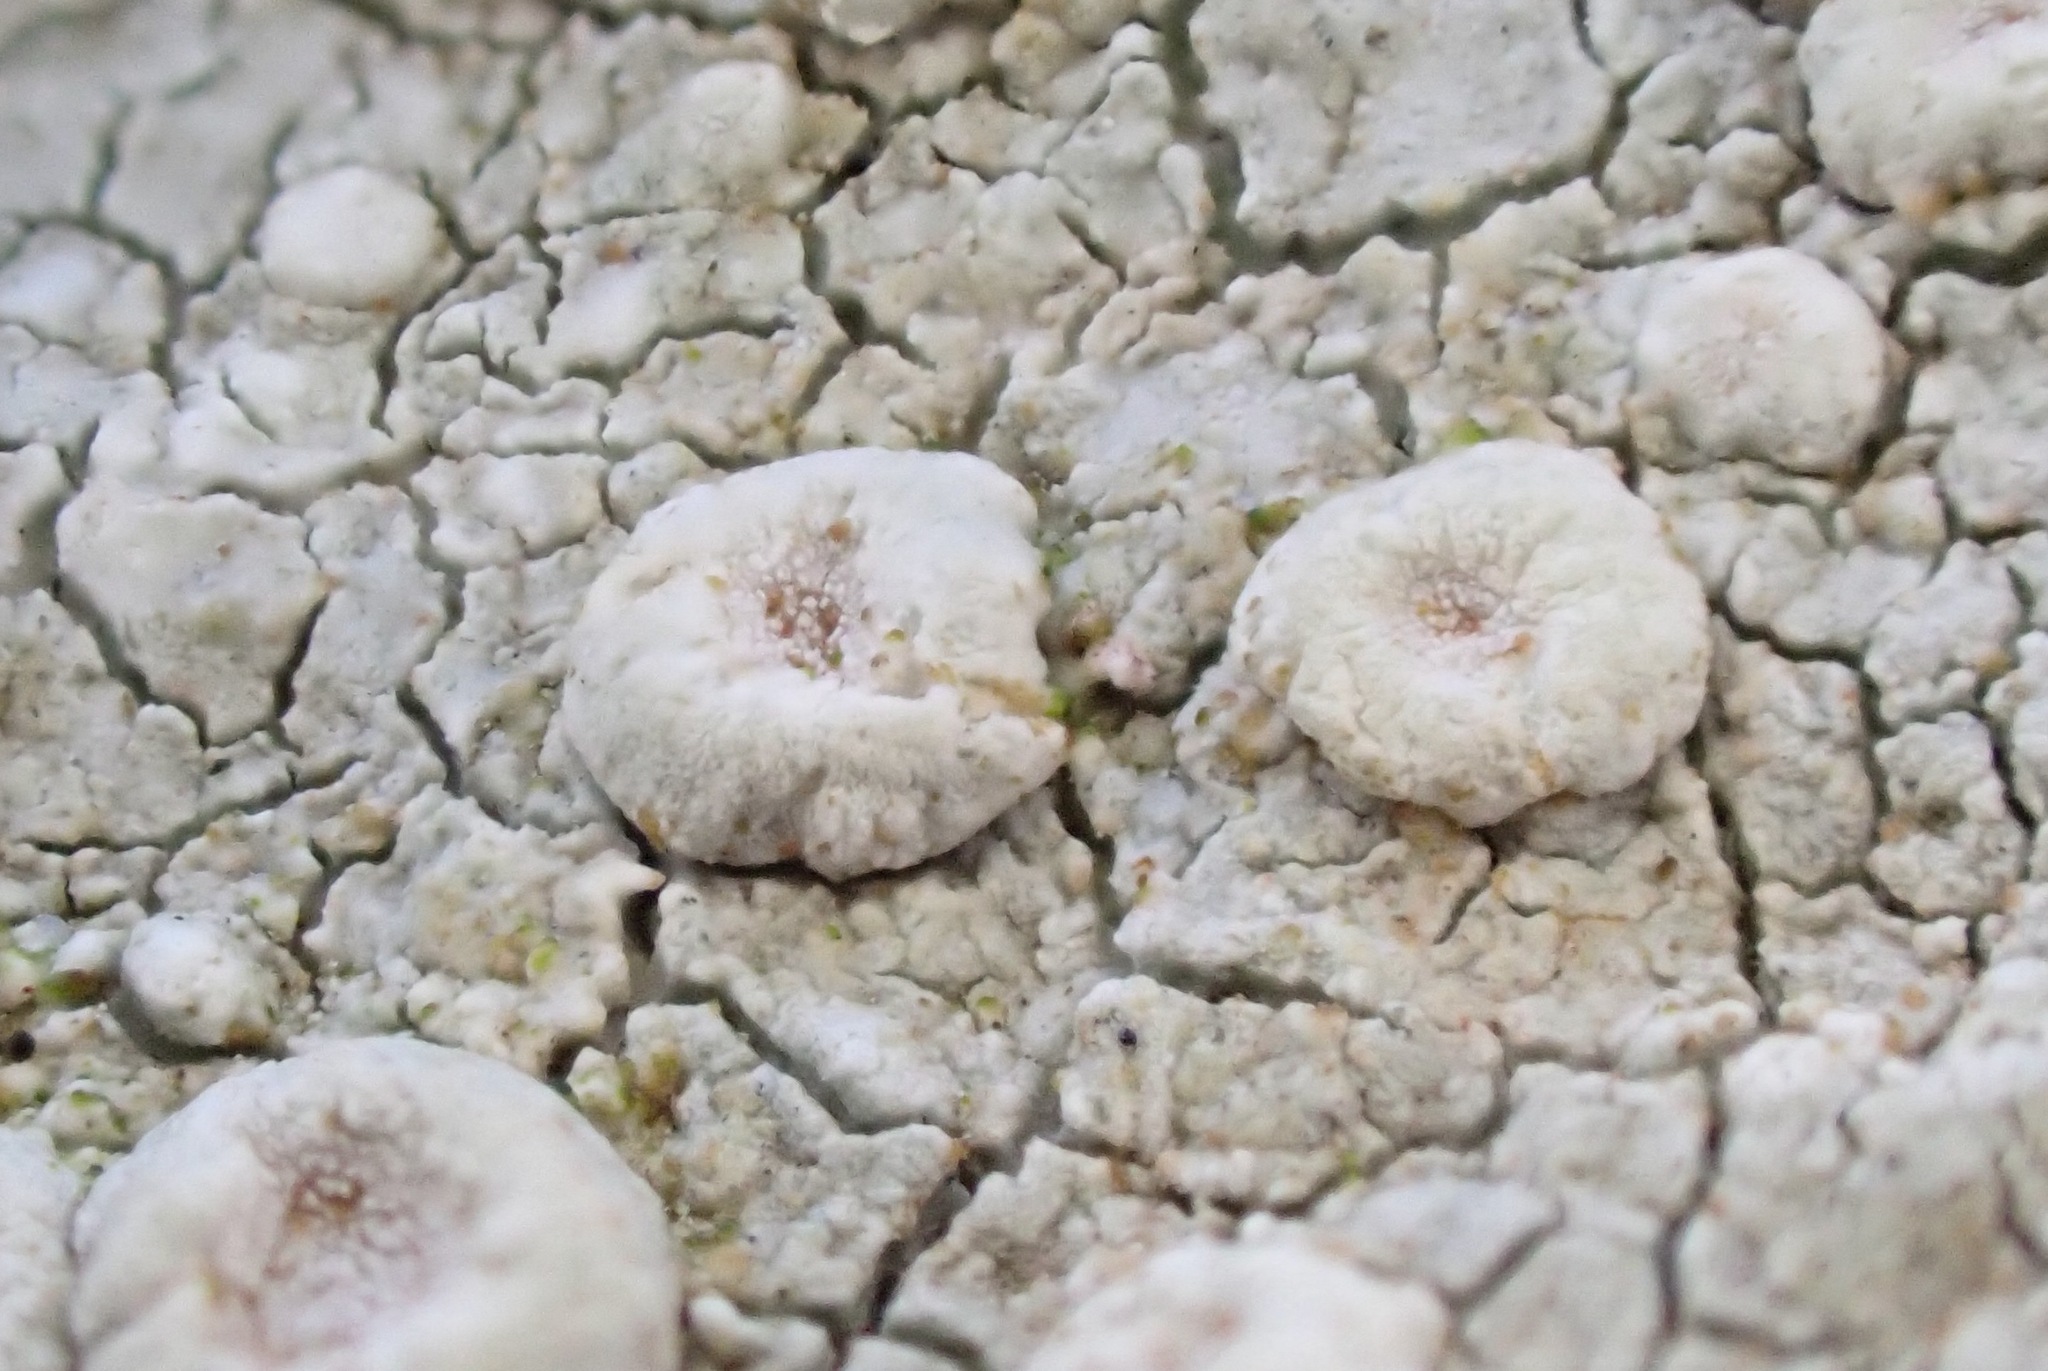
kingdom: Fungi
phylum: Ascomycota
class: Lecanoromycetes
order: Pertusariales
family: Ochrolechiaceae
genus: Ochrolechia
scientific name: Ochrolechia parella
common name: Crab's eye lichen
